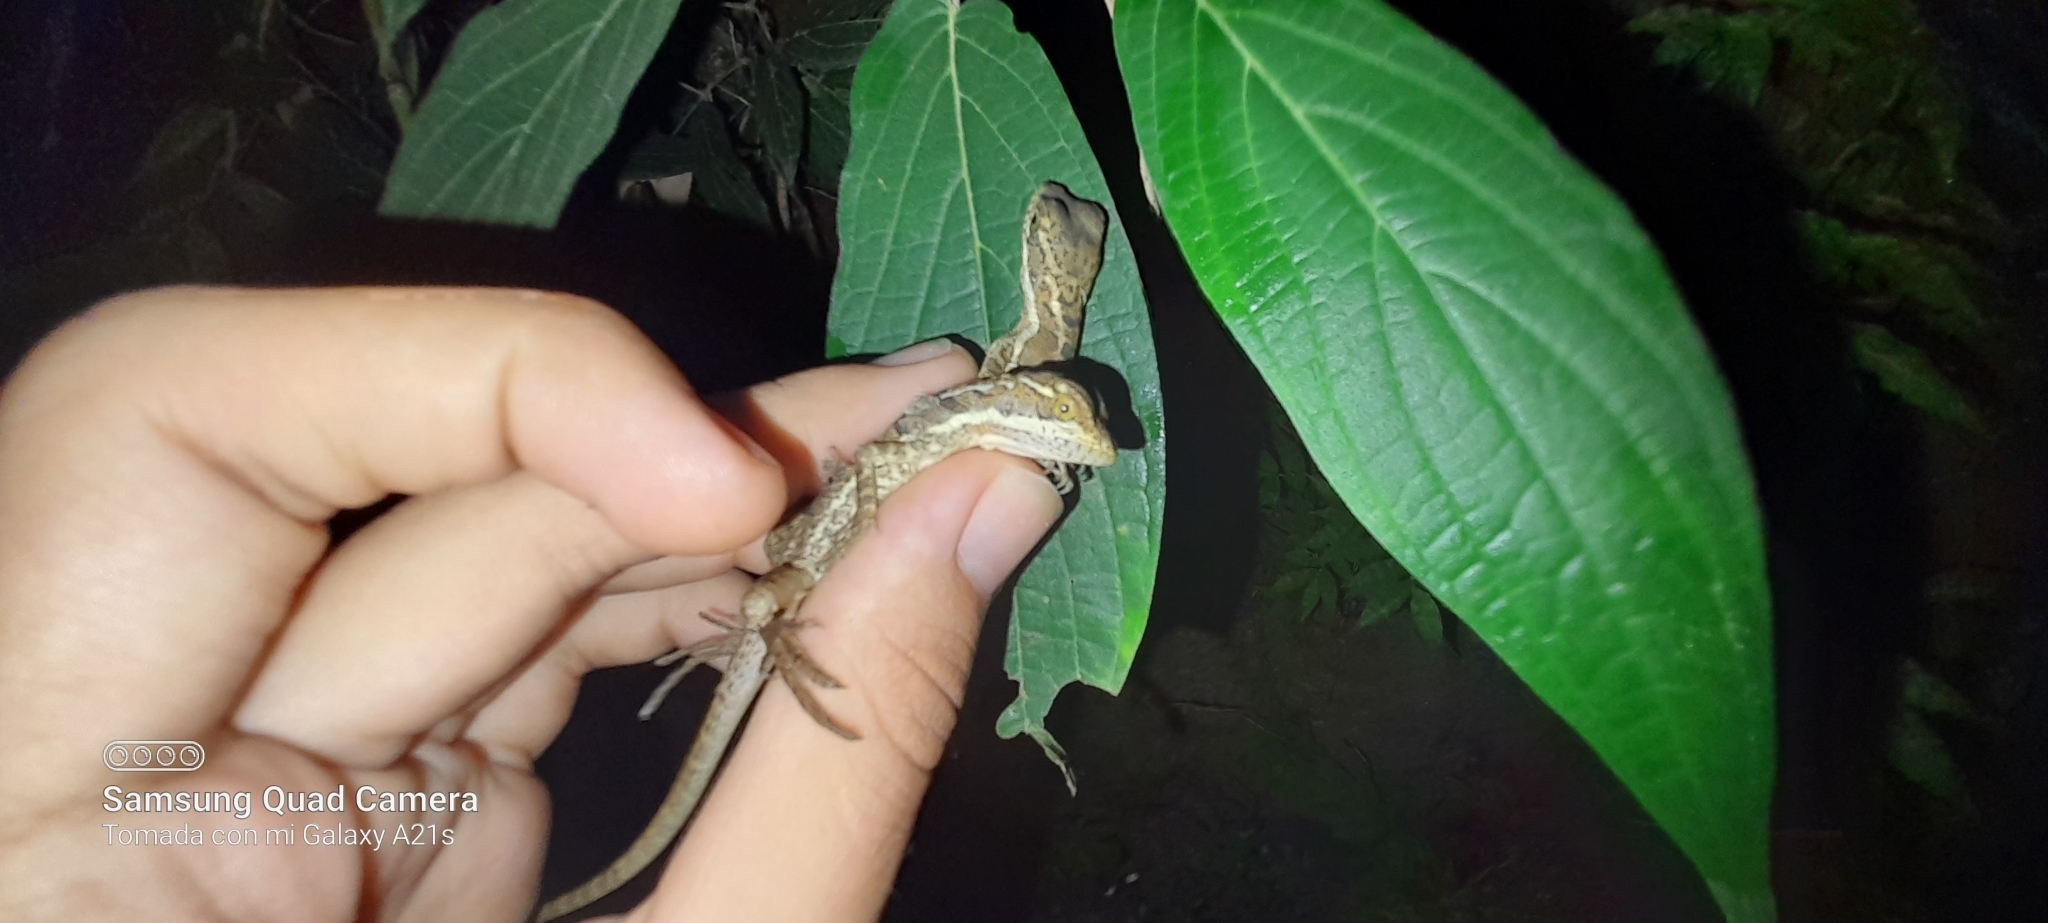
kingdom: Animalia
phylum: Chordata
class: Squamata
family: Corytophanidae
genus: Basiliscus
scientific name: Basiliscus basiliscus
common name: Common basilisk
